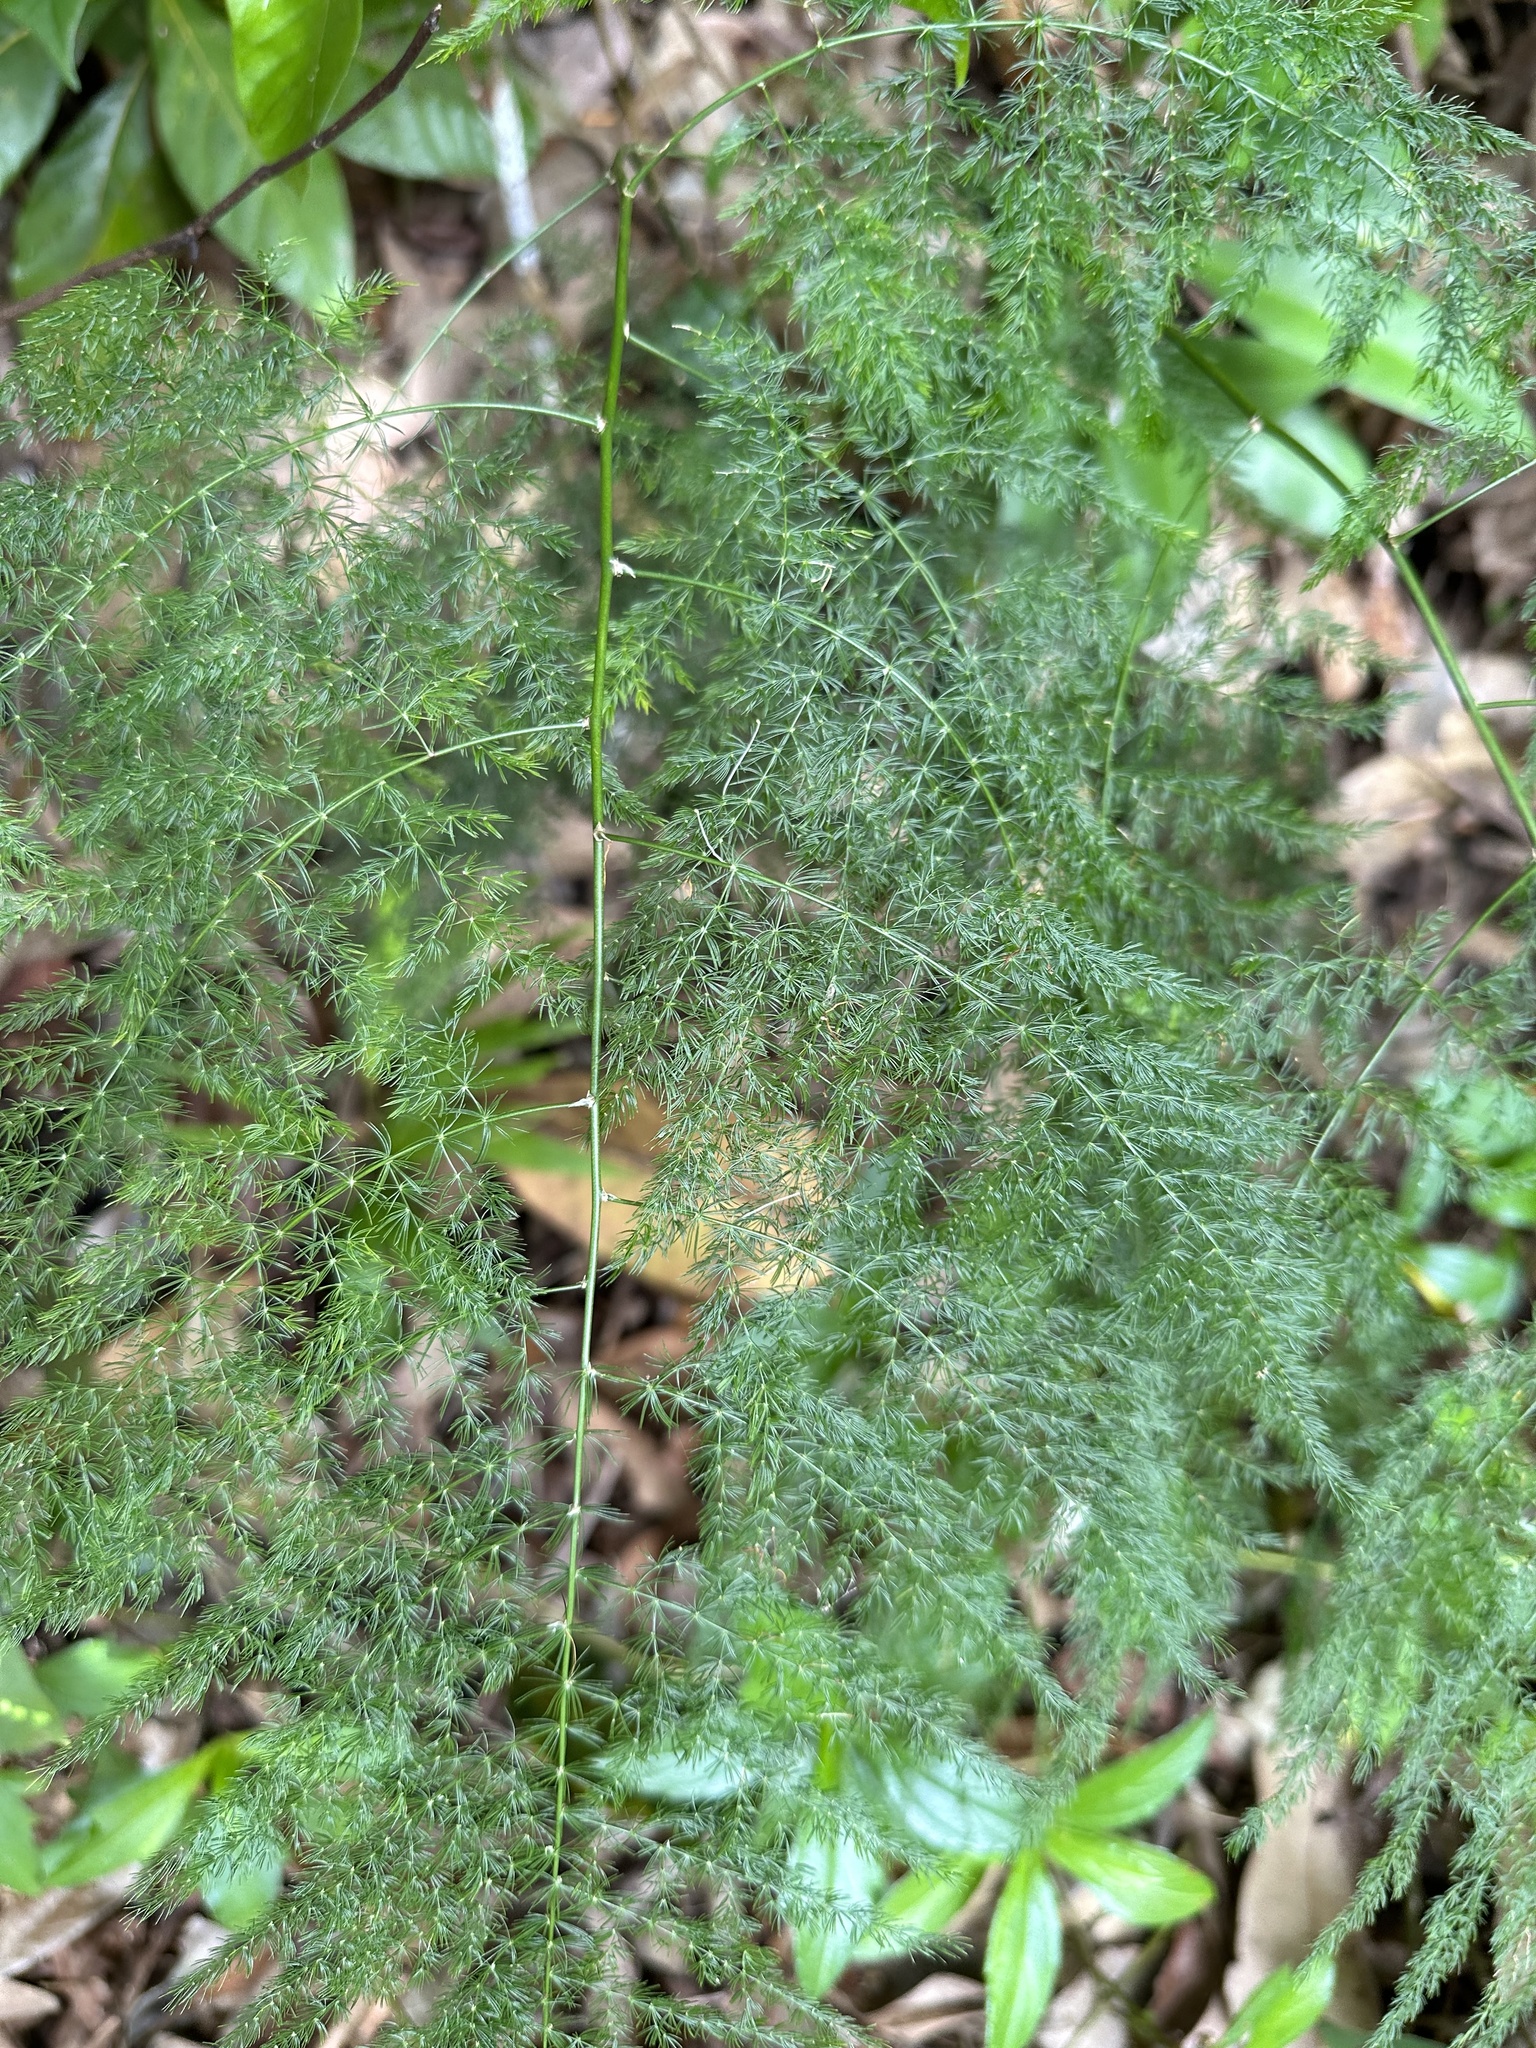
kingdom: Plantae
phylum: Tracheophyta
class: Liliopsida
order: Asparagales
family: Asparagaceae
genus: Asparagus
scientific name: Asparagus setaceus
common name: Common asparagus fern
